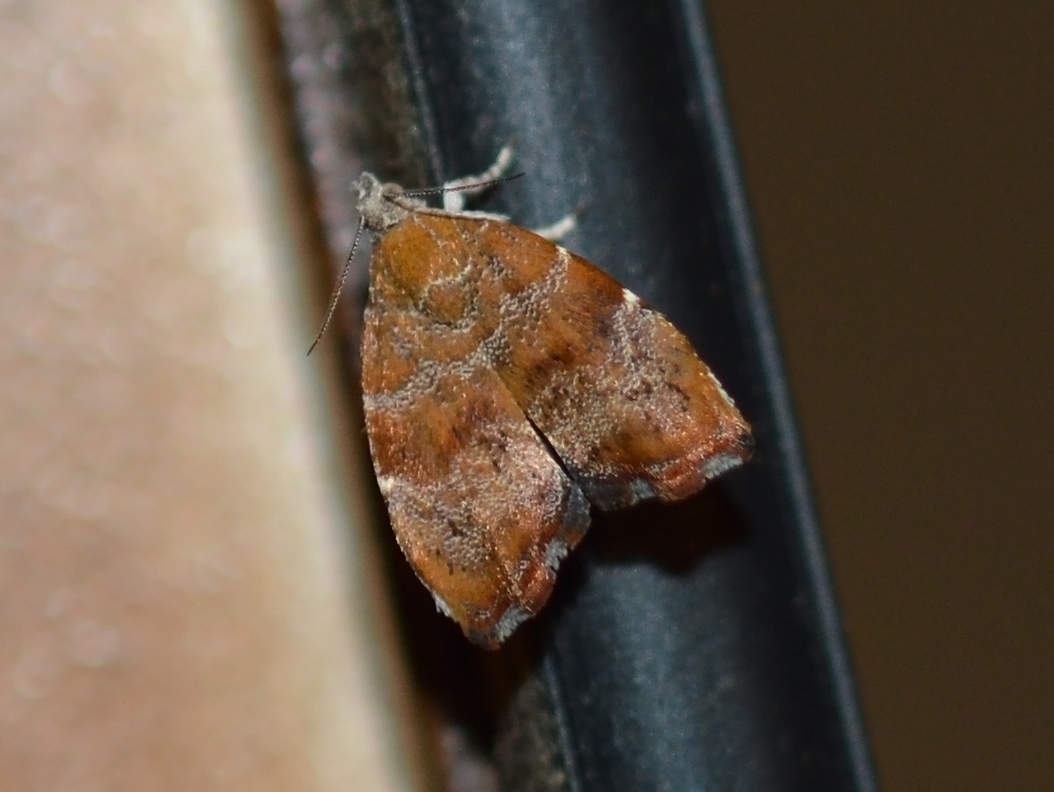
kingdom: Animalia
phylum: Arthropoda
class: Insecta
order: Lepidoptera
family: Choreutidae
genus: Anthophila
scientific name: Anthophila nemorana
